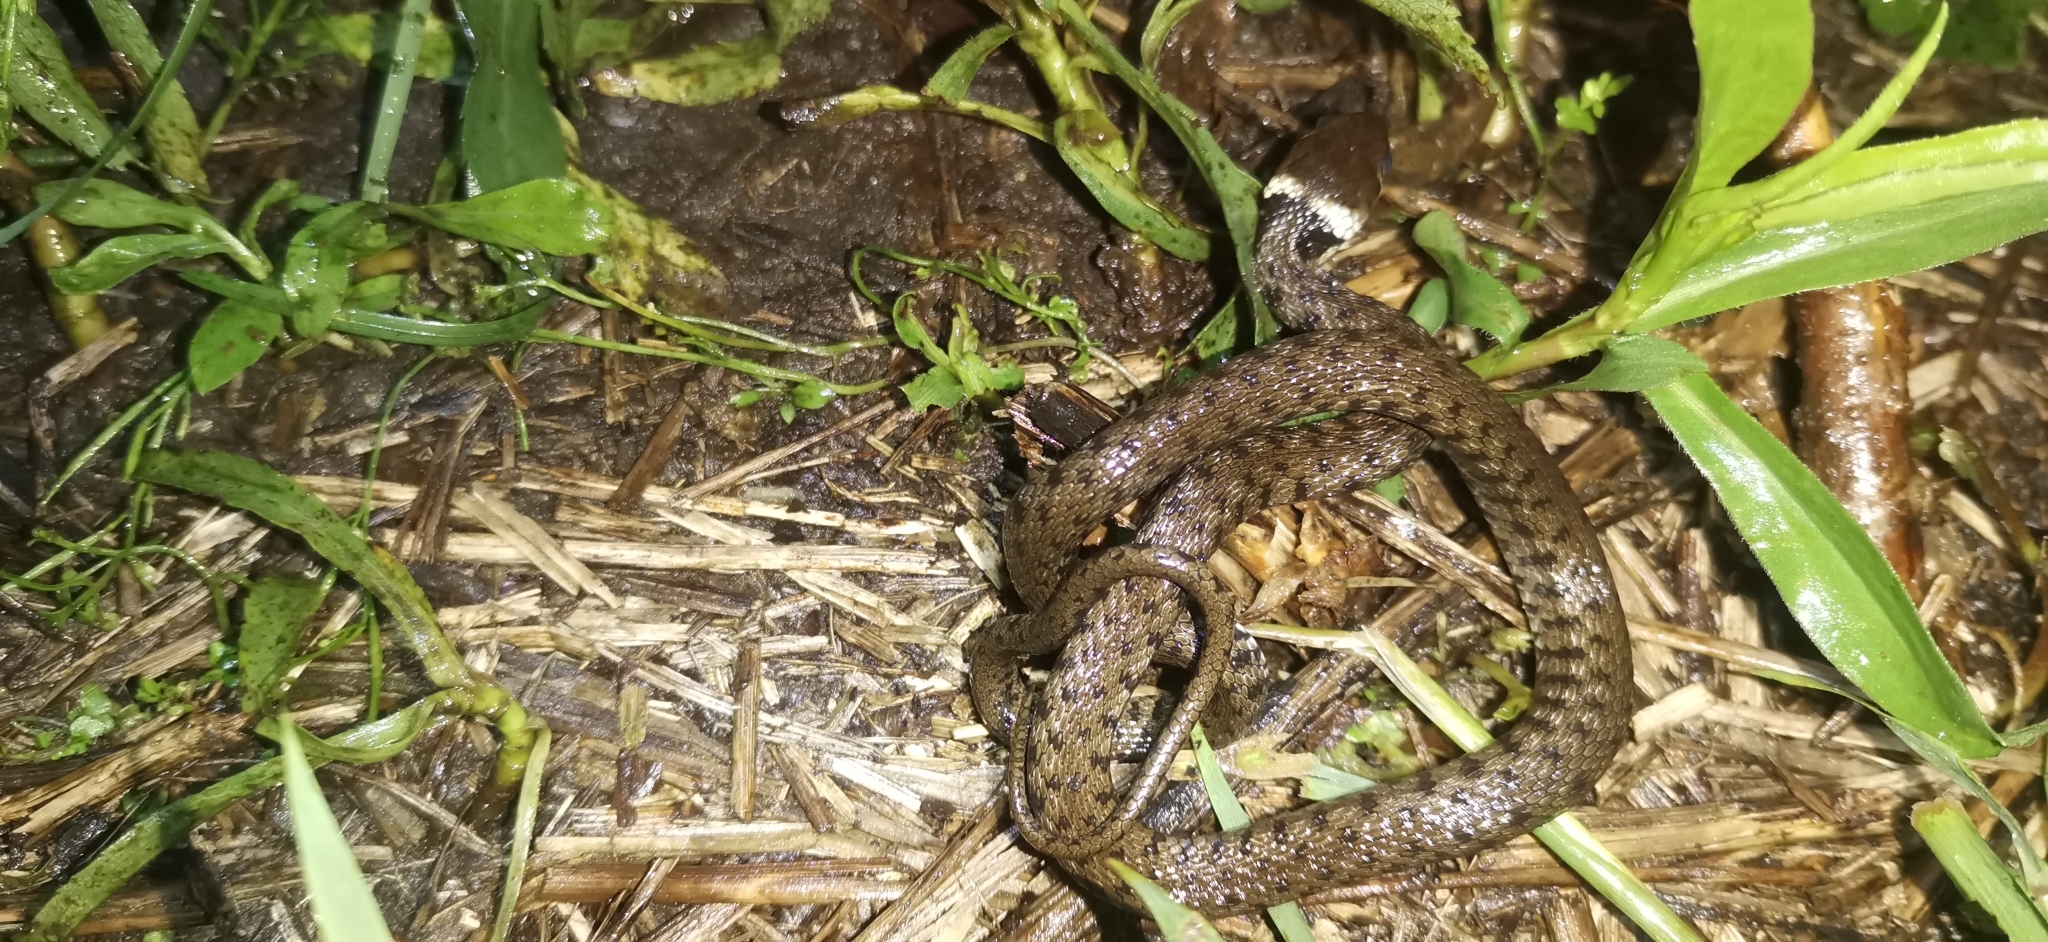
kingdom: Animalia
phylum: Chordata
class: Squamata
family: Colubridae
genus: Natrix
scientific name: Natrix helvetica
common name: Banded grass snake
